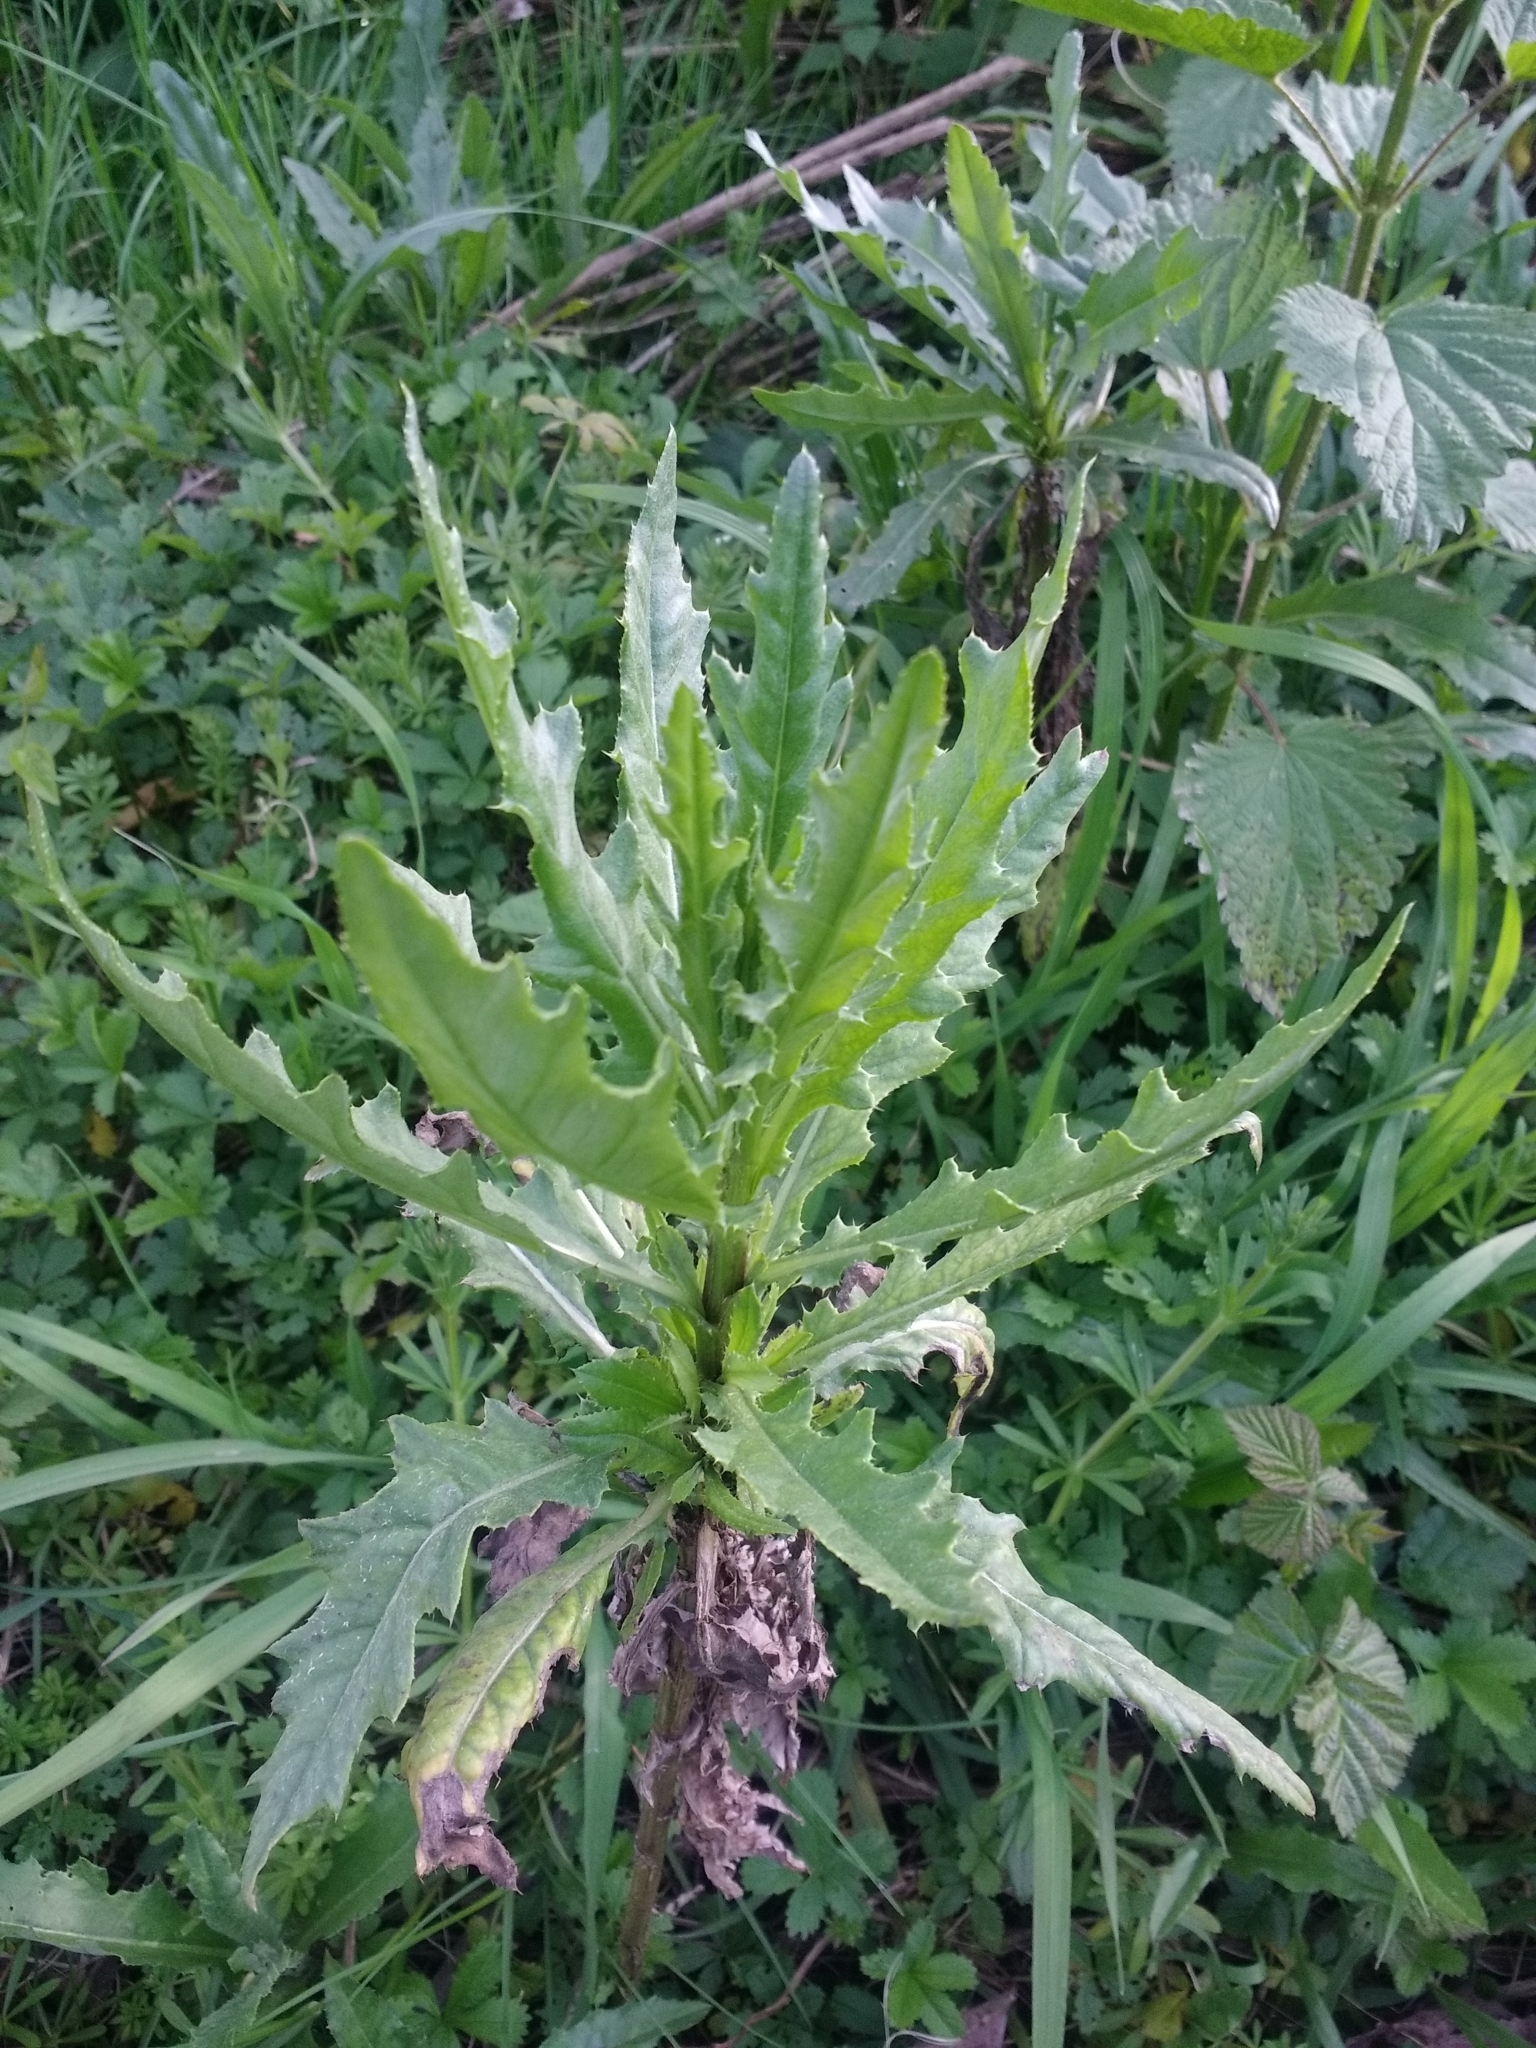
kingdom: Plantae
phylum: Tracheophyta
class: Magnoliopsida
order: Asterales
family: Asteraceae
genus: Cirsium
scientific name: Cirsium arvense
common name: Creeping thistle
